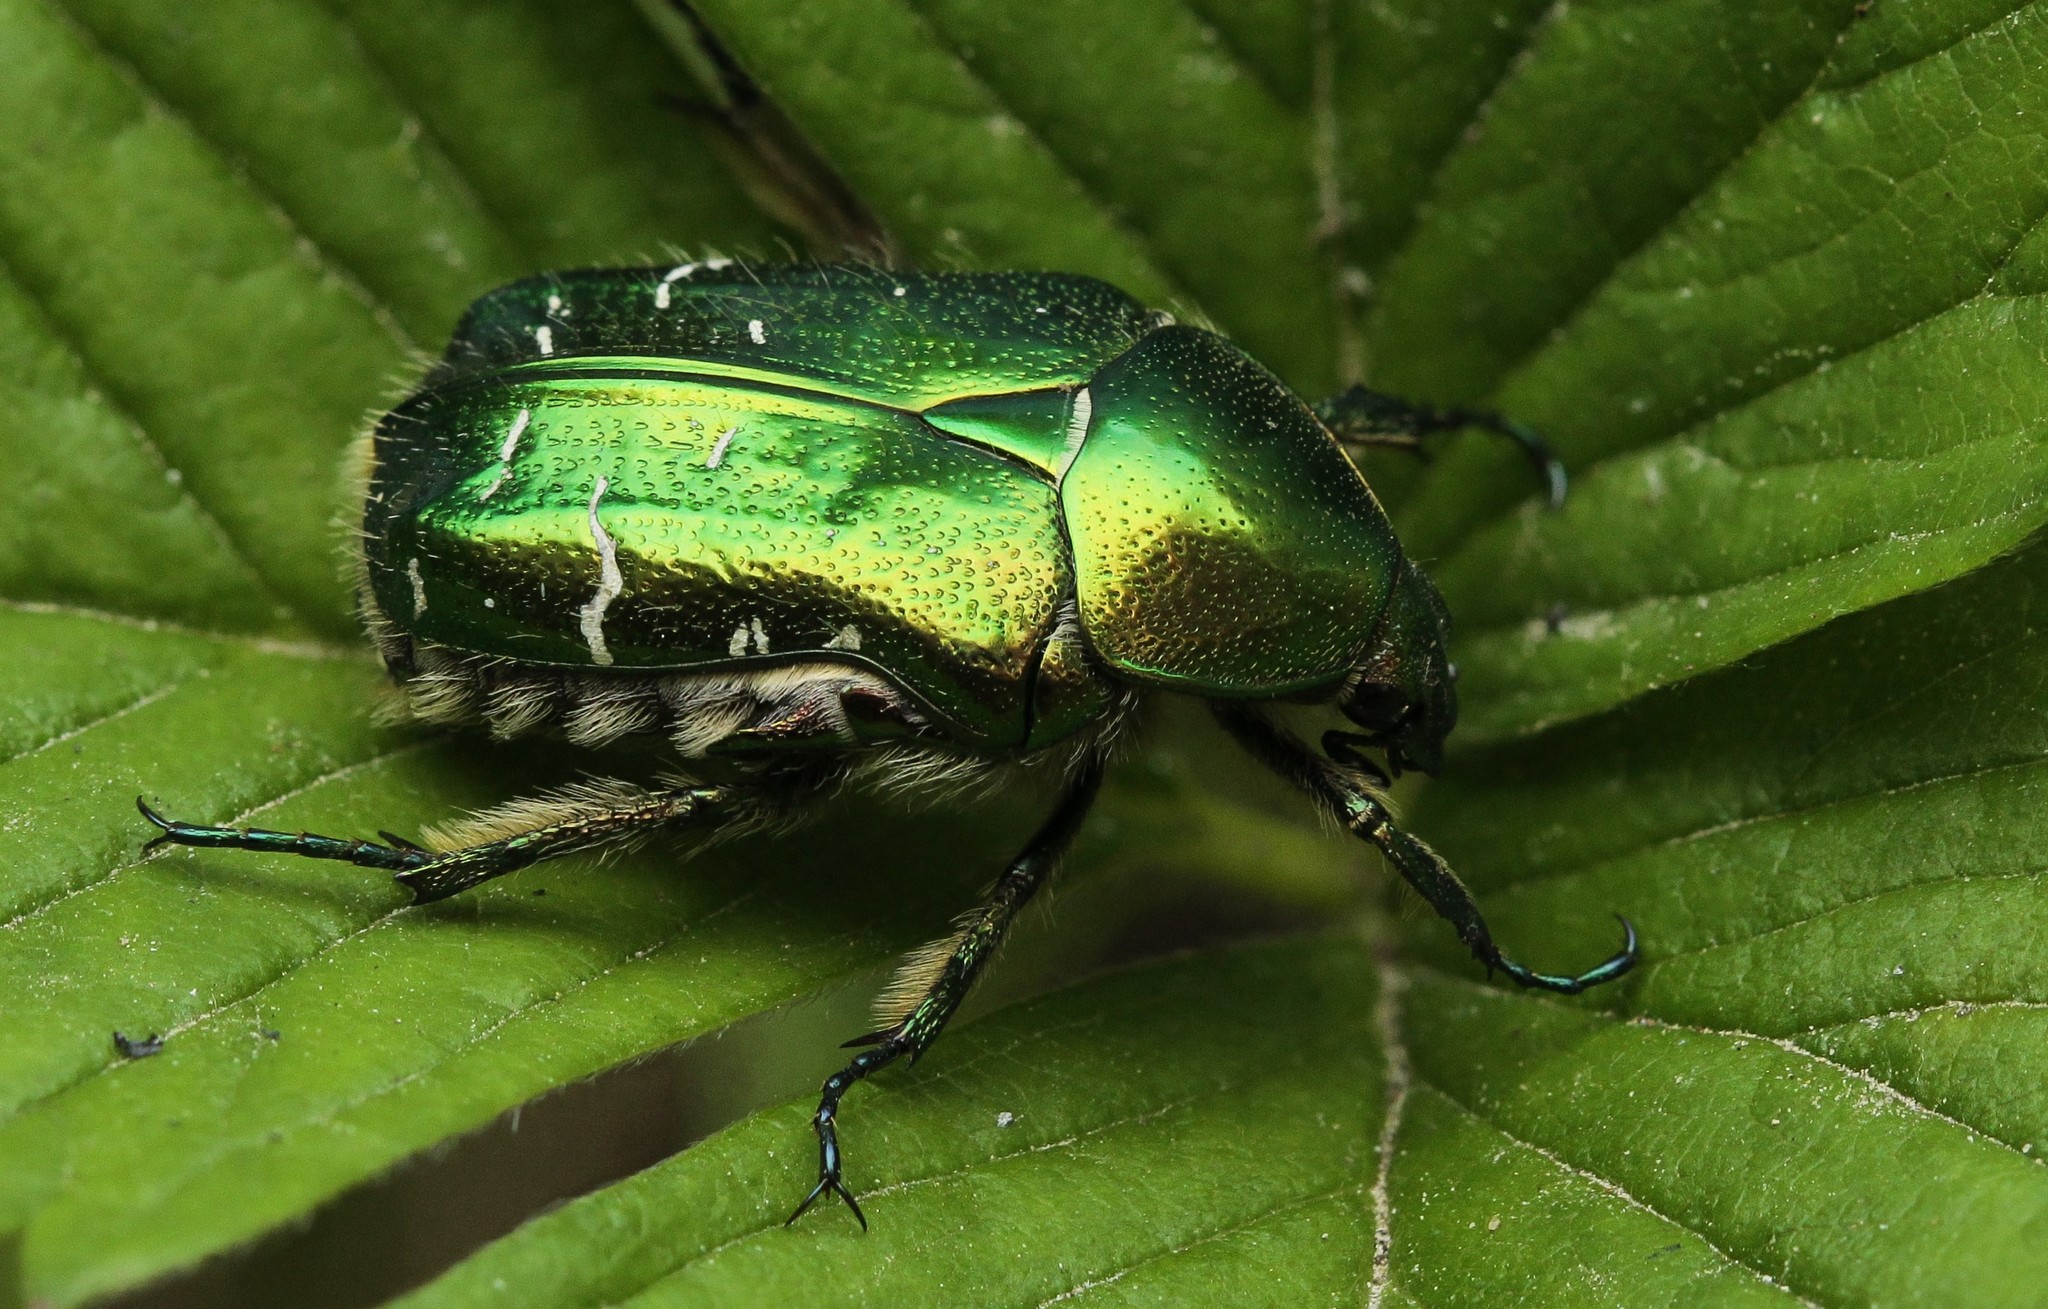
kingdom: Animalia
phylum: Arthropoda
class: Insecta
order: Coleoptera
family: Scarabaeidae
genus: Cetonia
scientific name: Cetonia aurata
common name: Rose chafer
